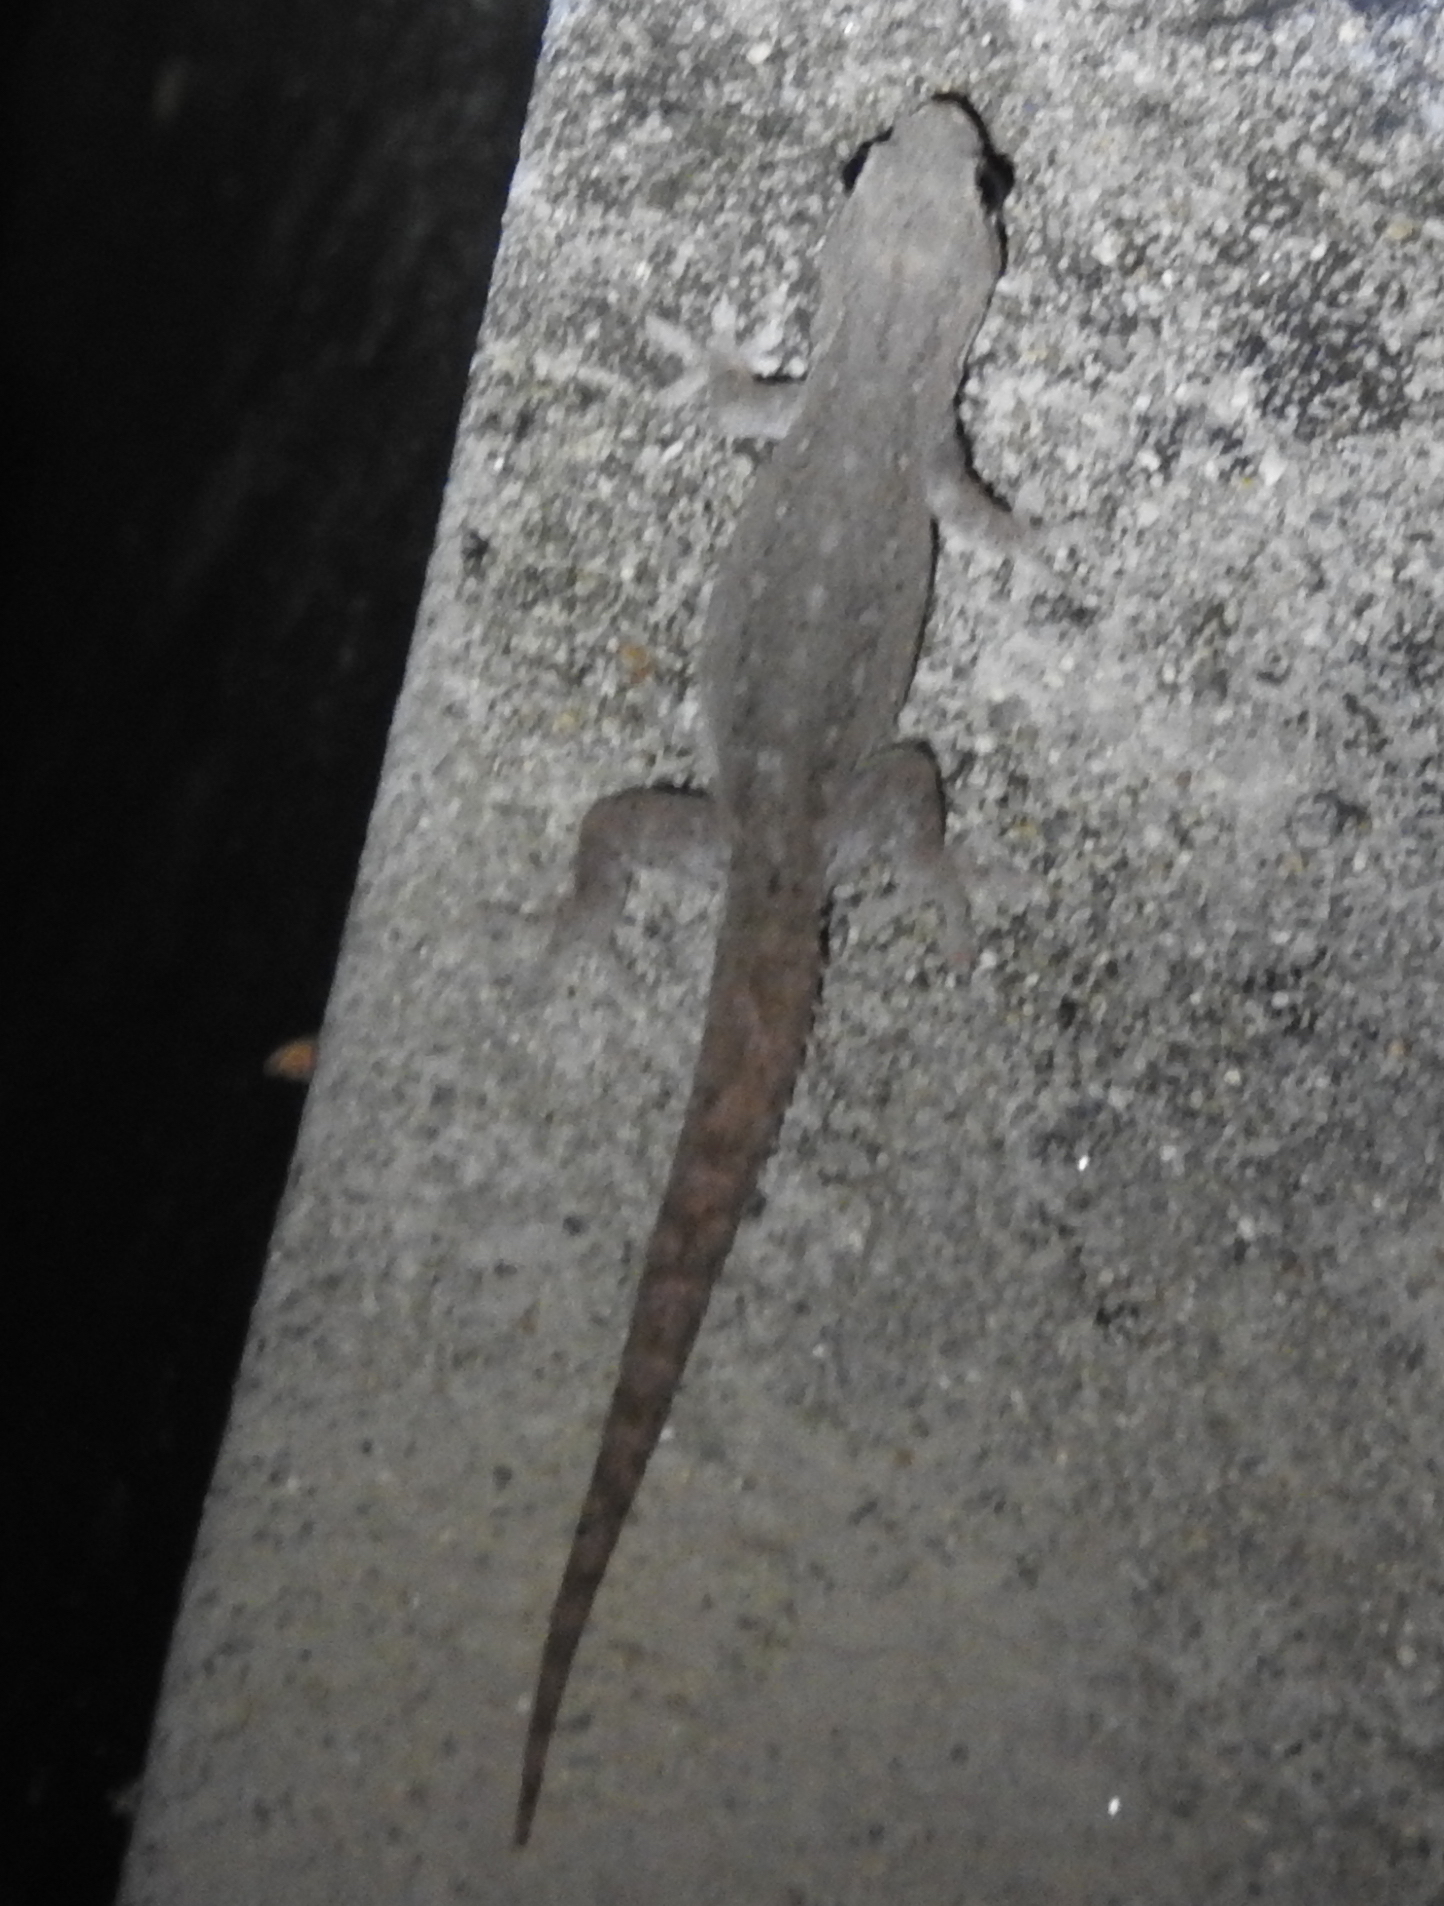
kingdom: Animalia
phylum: Chordata
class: Squamata
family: Gekkonidae
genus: Hemidactylus
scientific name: Hemidactylus frenatus
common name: Common house gecko
